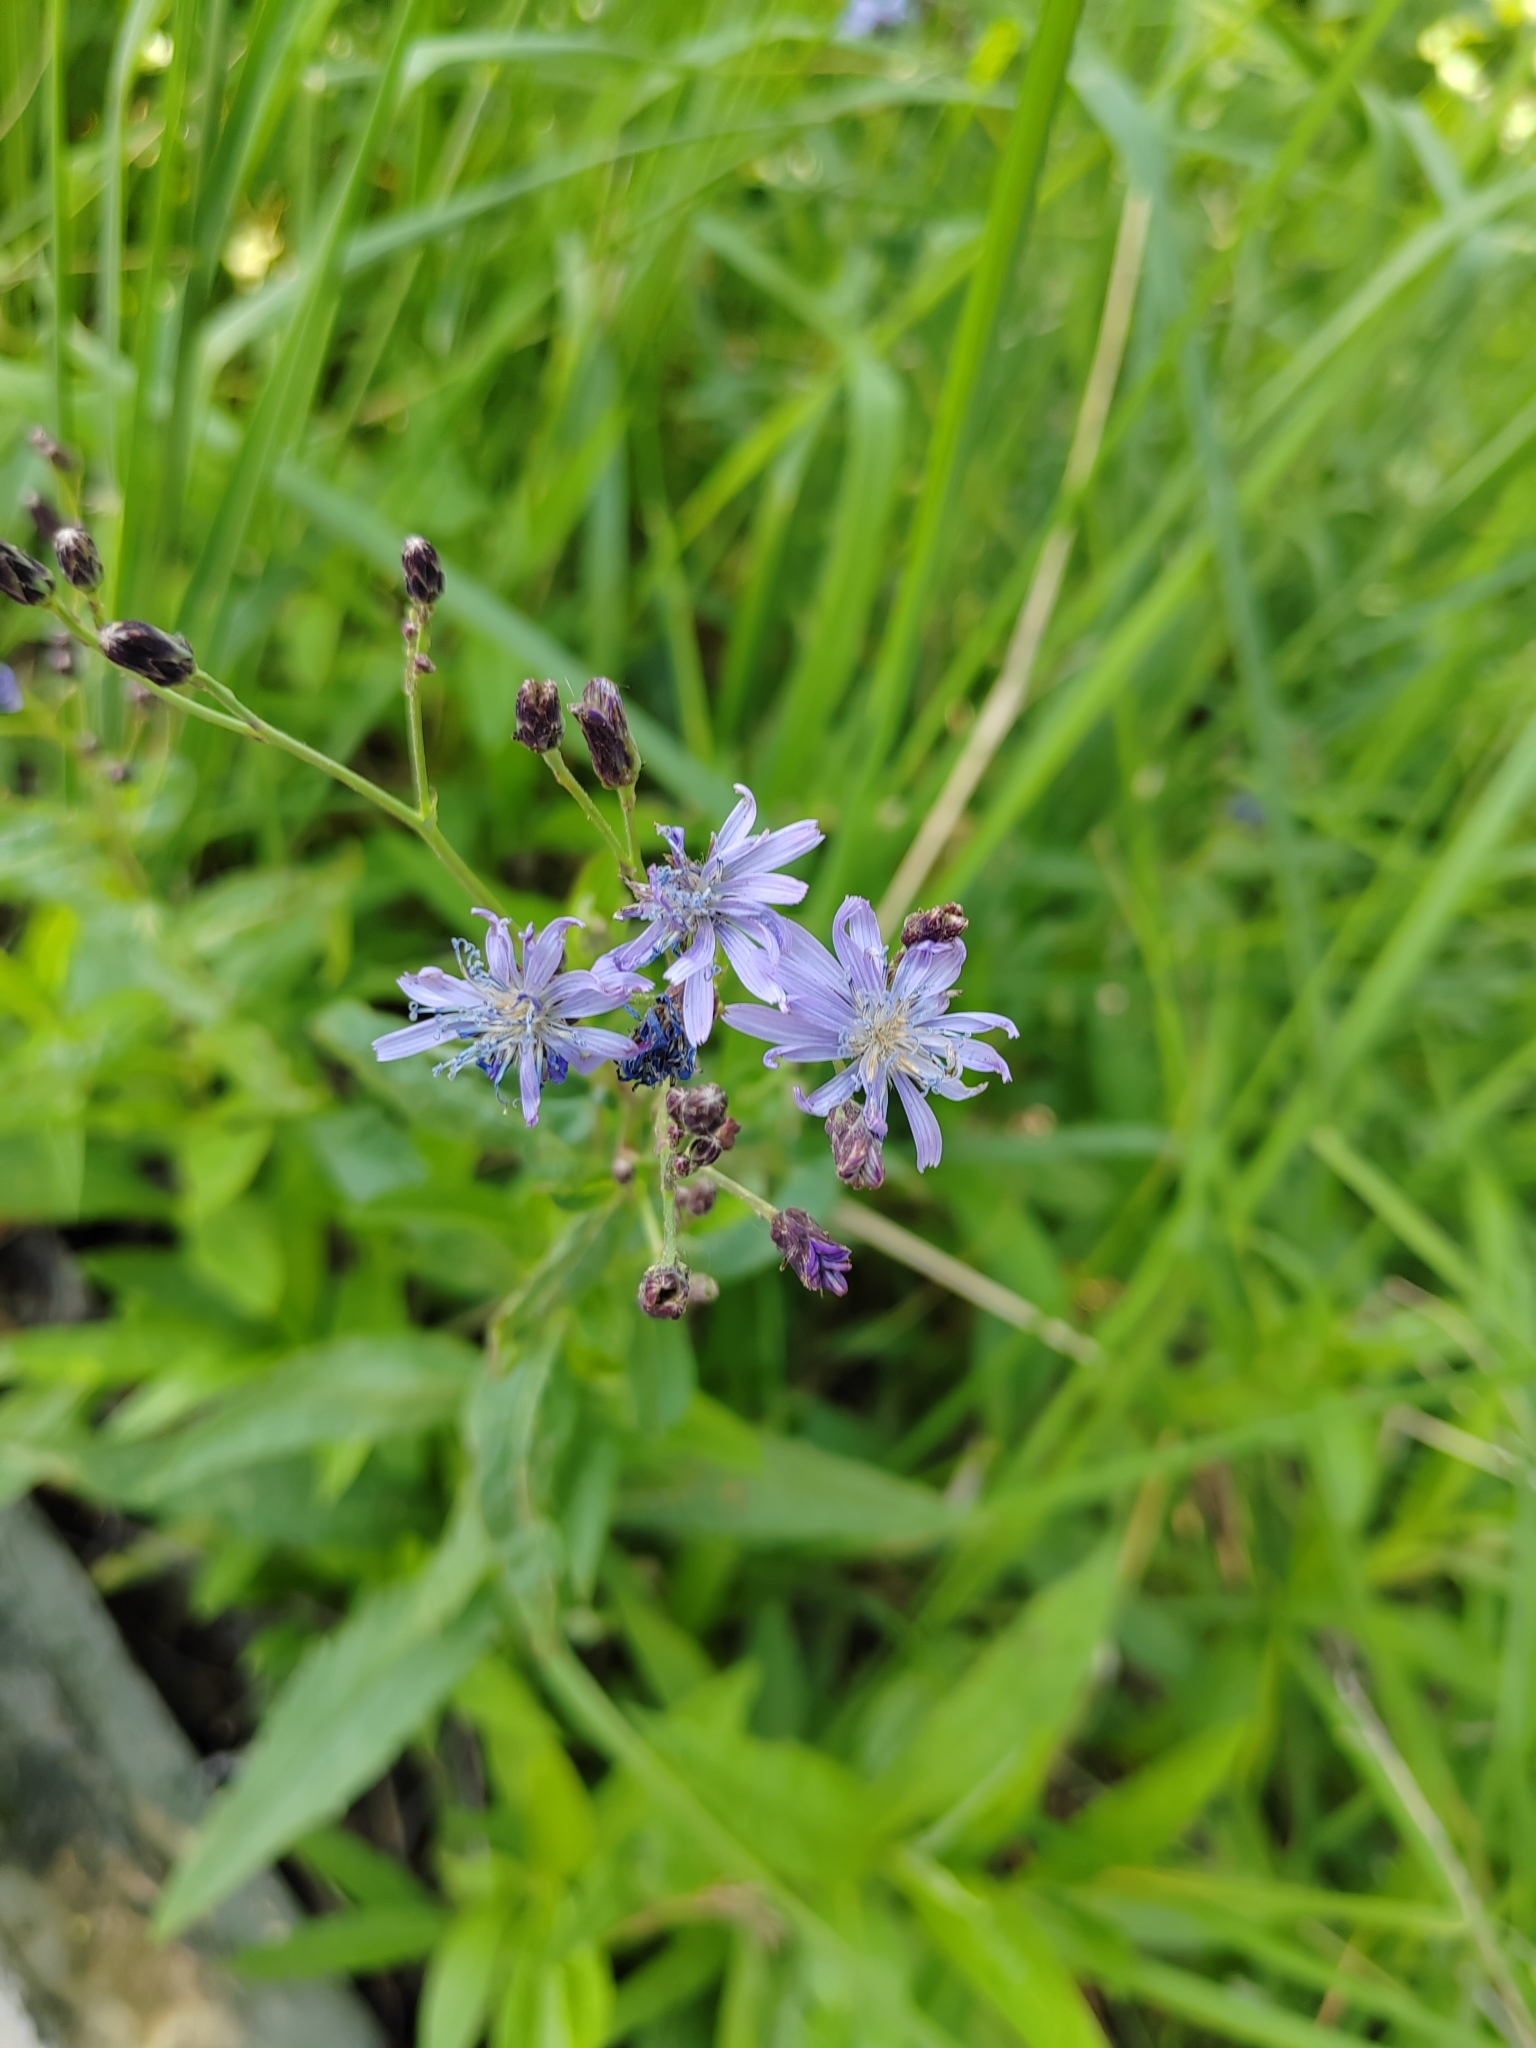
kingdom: Plantae
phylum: Tracheophyta
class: Magnoliopsida
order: Asterales
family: Asteraceae
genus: Lactuca
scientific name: Lactuca sibirica
